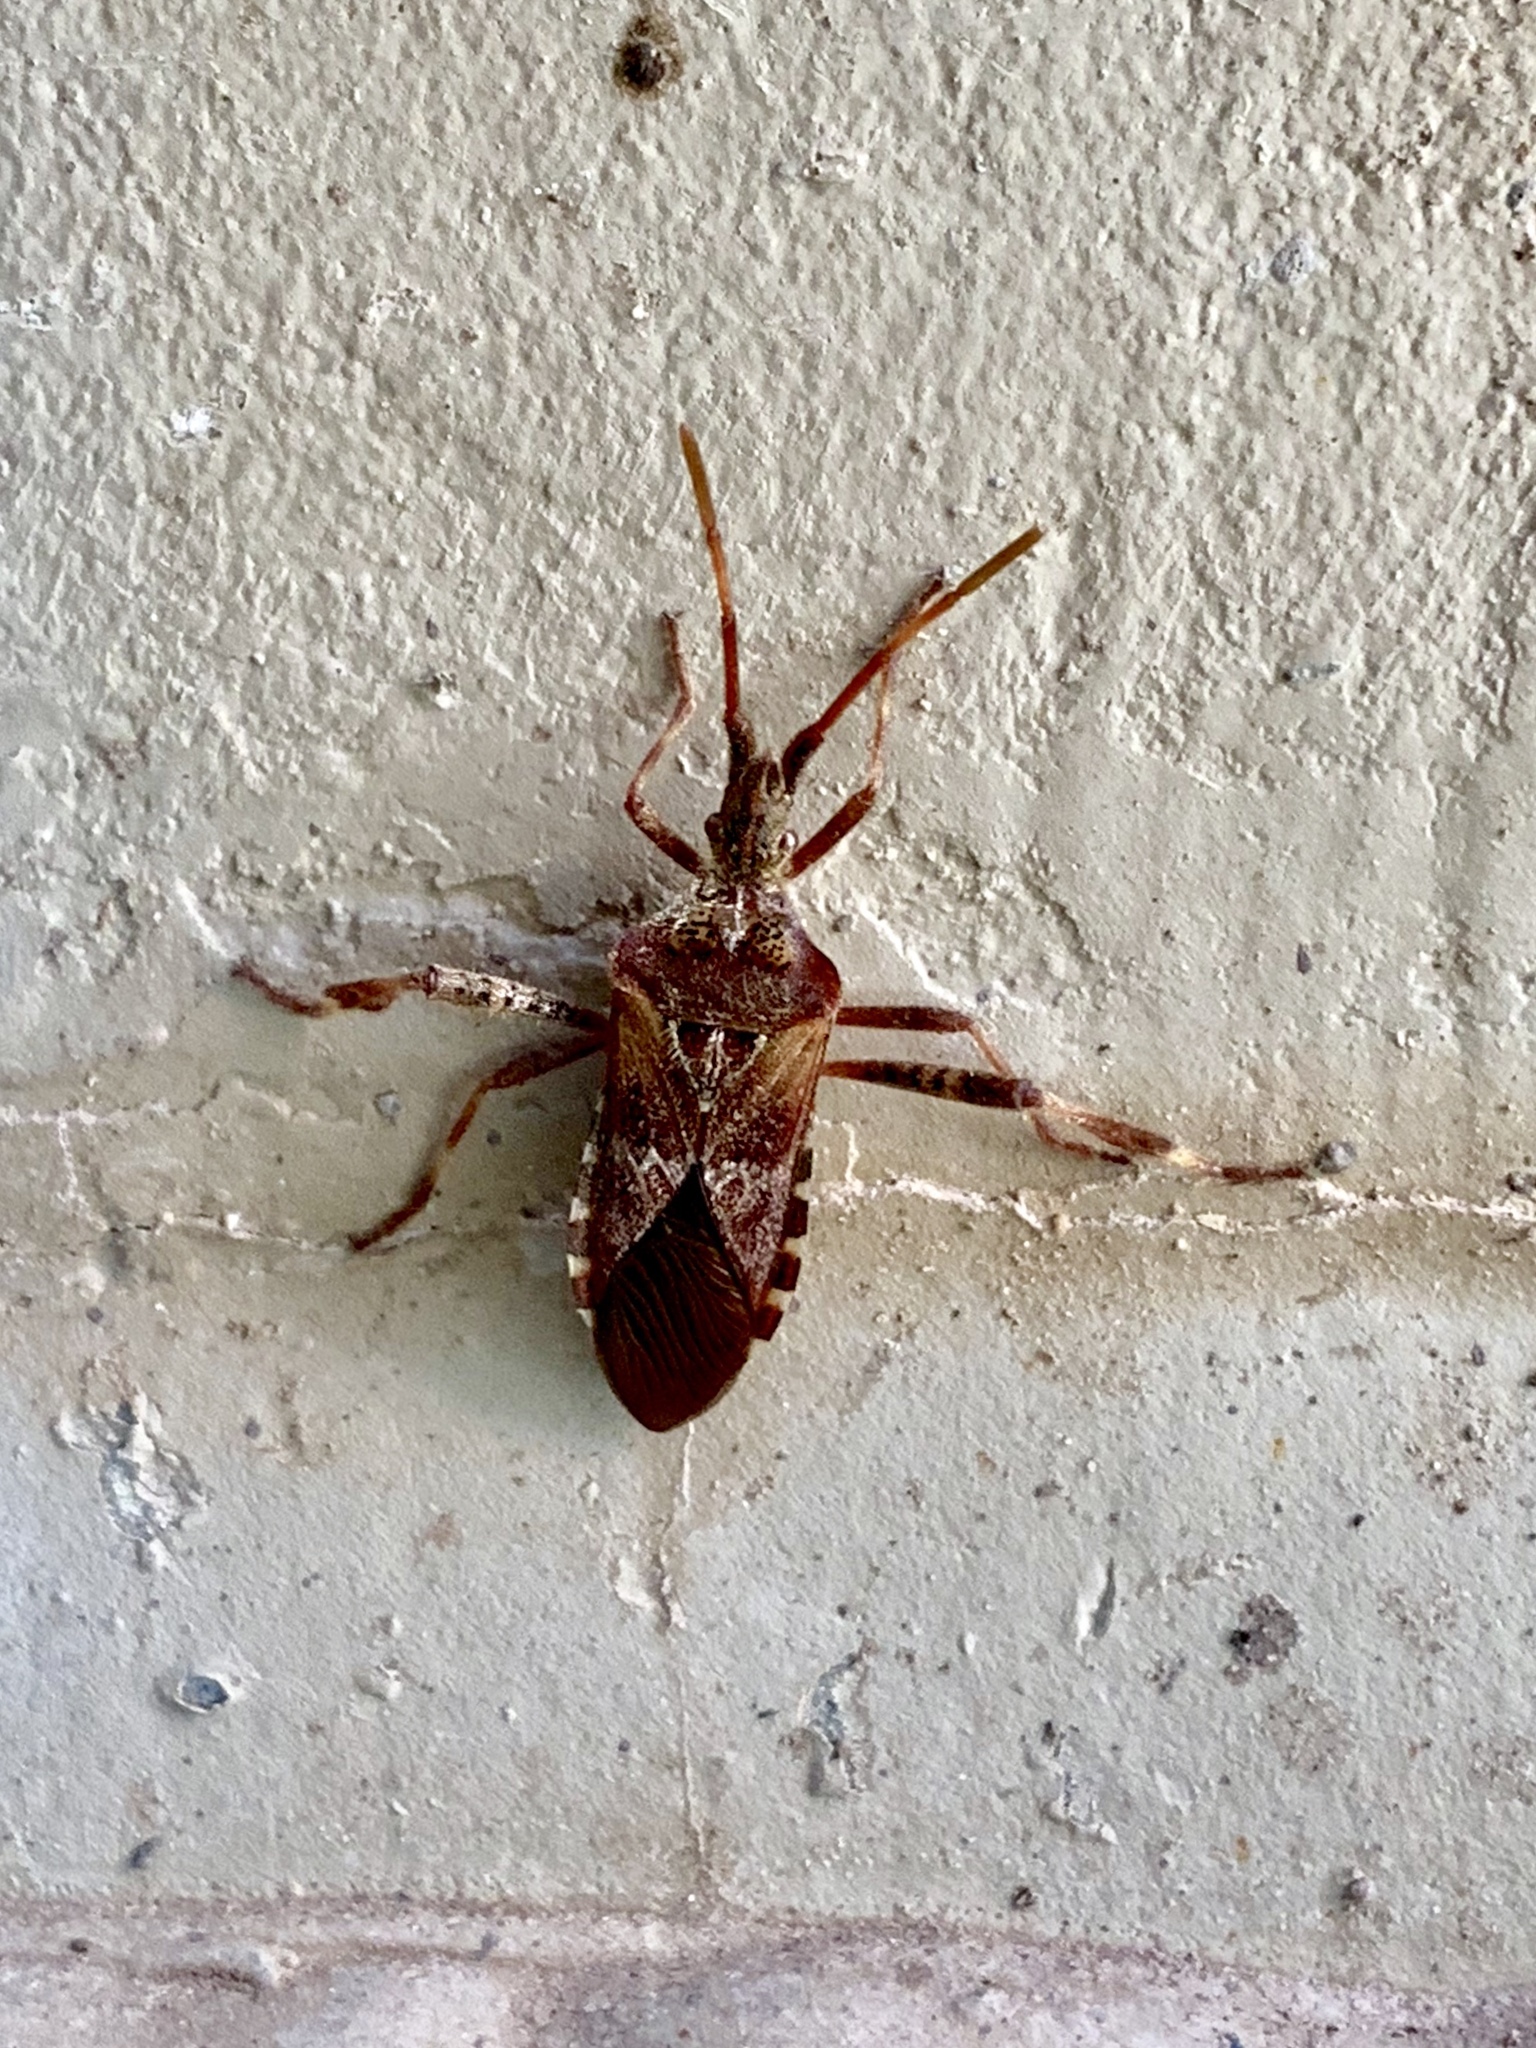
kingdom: Animalia
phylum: Arthropoda
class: Insecta
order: Hemiptera
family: Coreidae
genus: Leptoglossus
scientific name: Leptoglossus occidentalis
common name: Western conifer-seed bug
